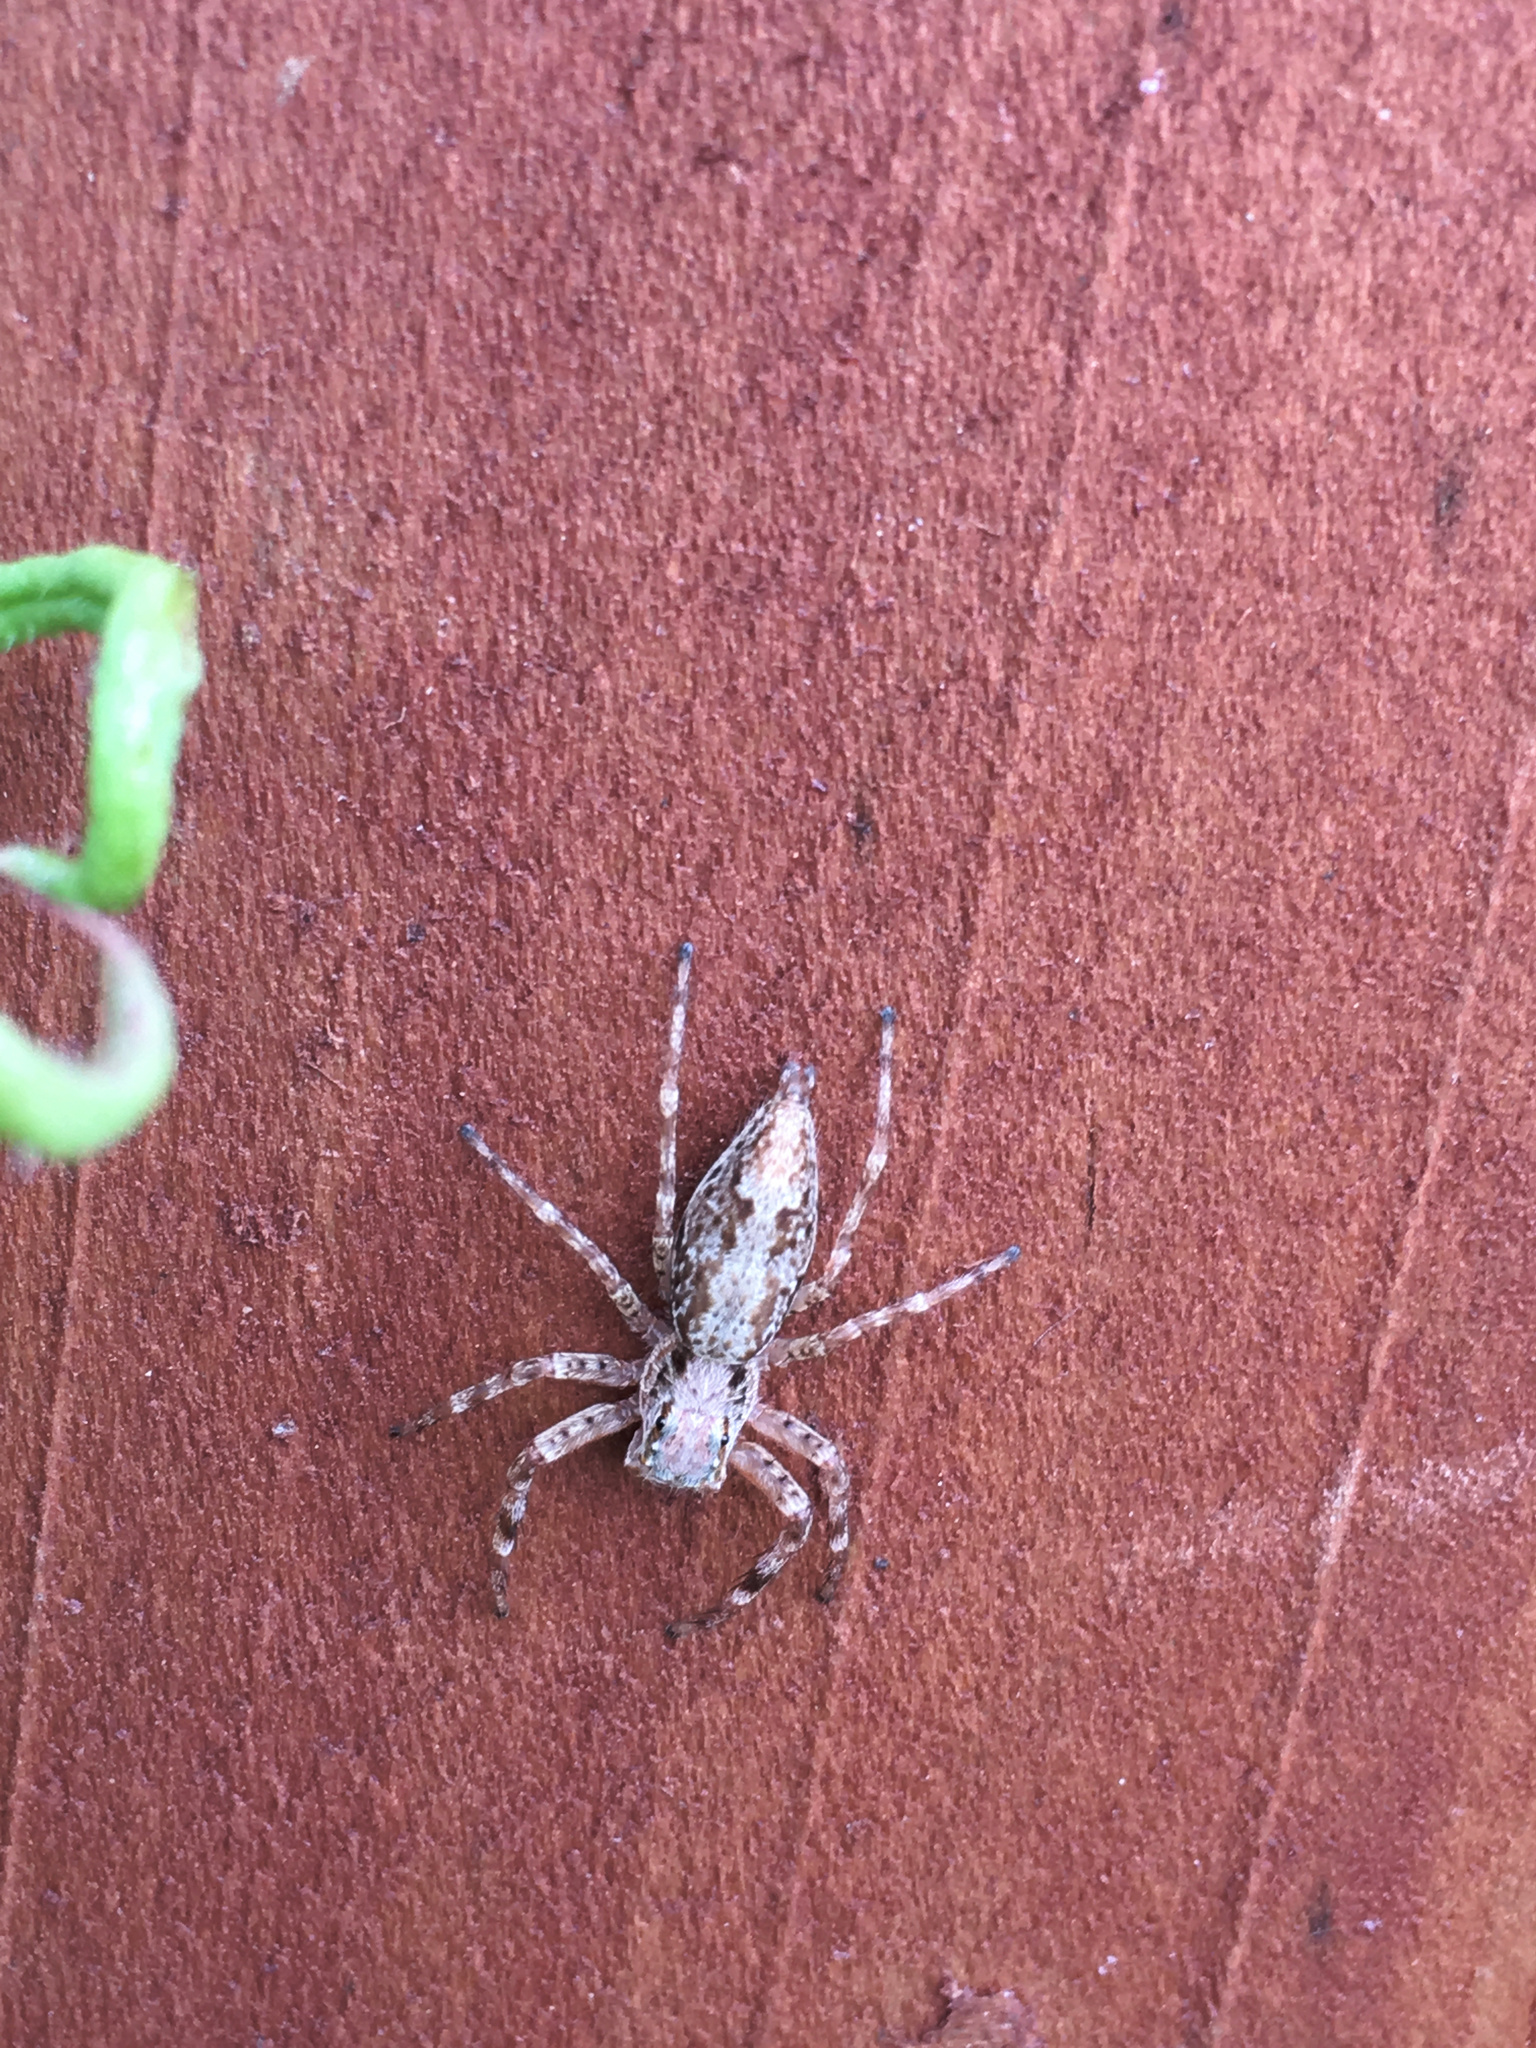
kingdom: Animalia
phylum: Arthropoda
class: Arachnida
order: Araneae
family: Salticidae
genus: Helpis
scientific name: Helpis minitabunda
